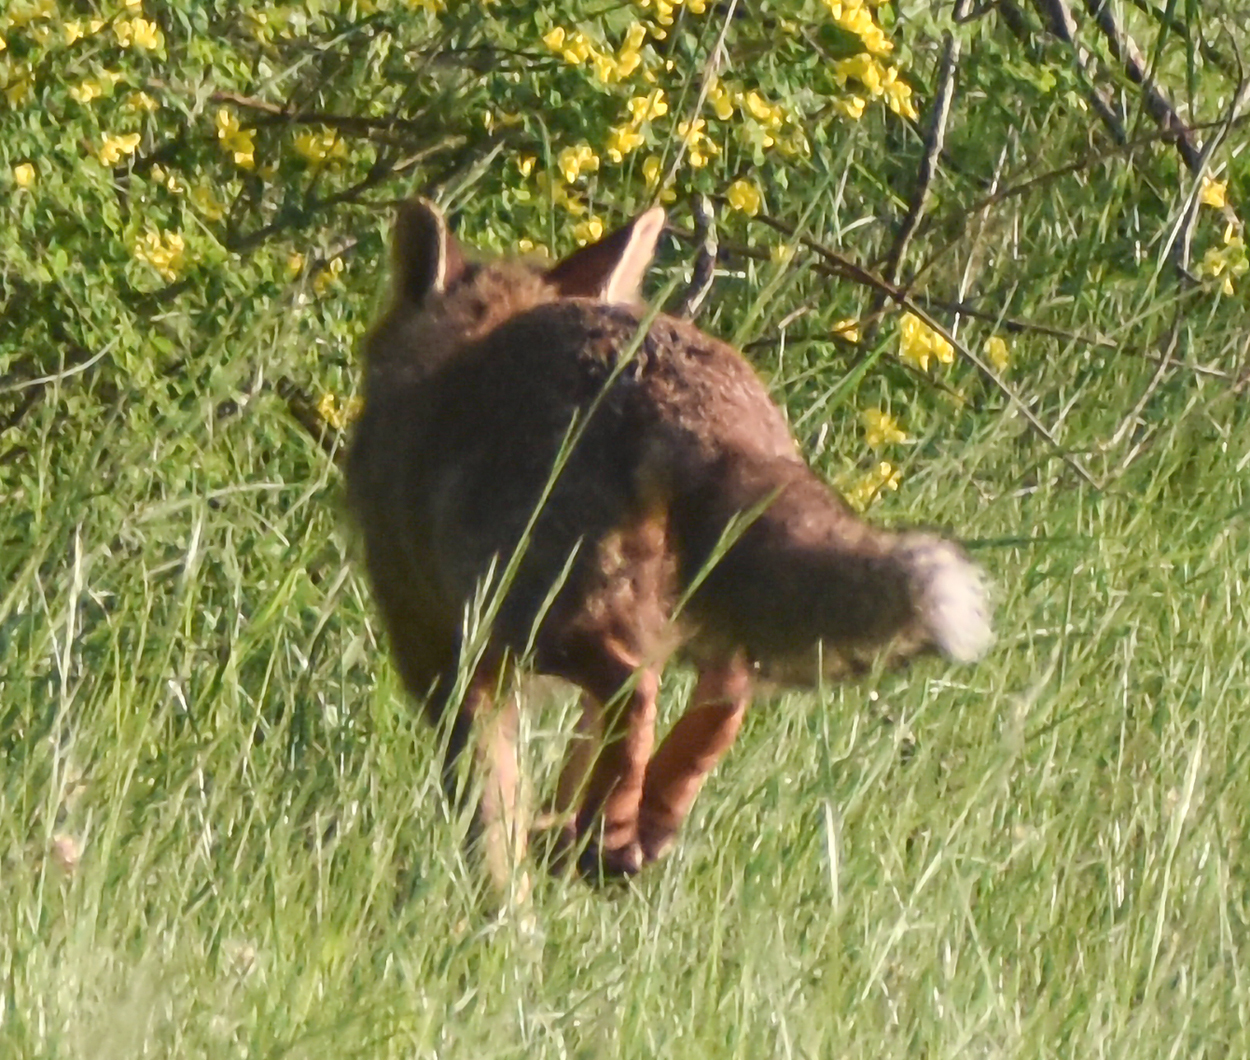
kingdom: Animalia
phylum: Chordata
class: Mammalia
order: Carnivora
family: Canidae
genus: Vulpes
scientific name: Vulpes vulpes
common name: Red fox
